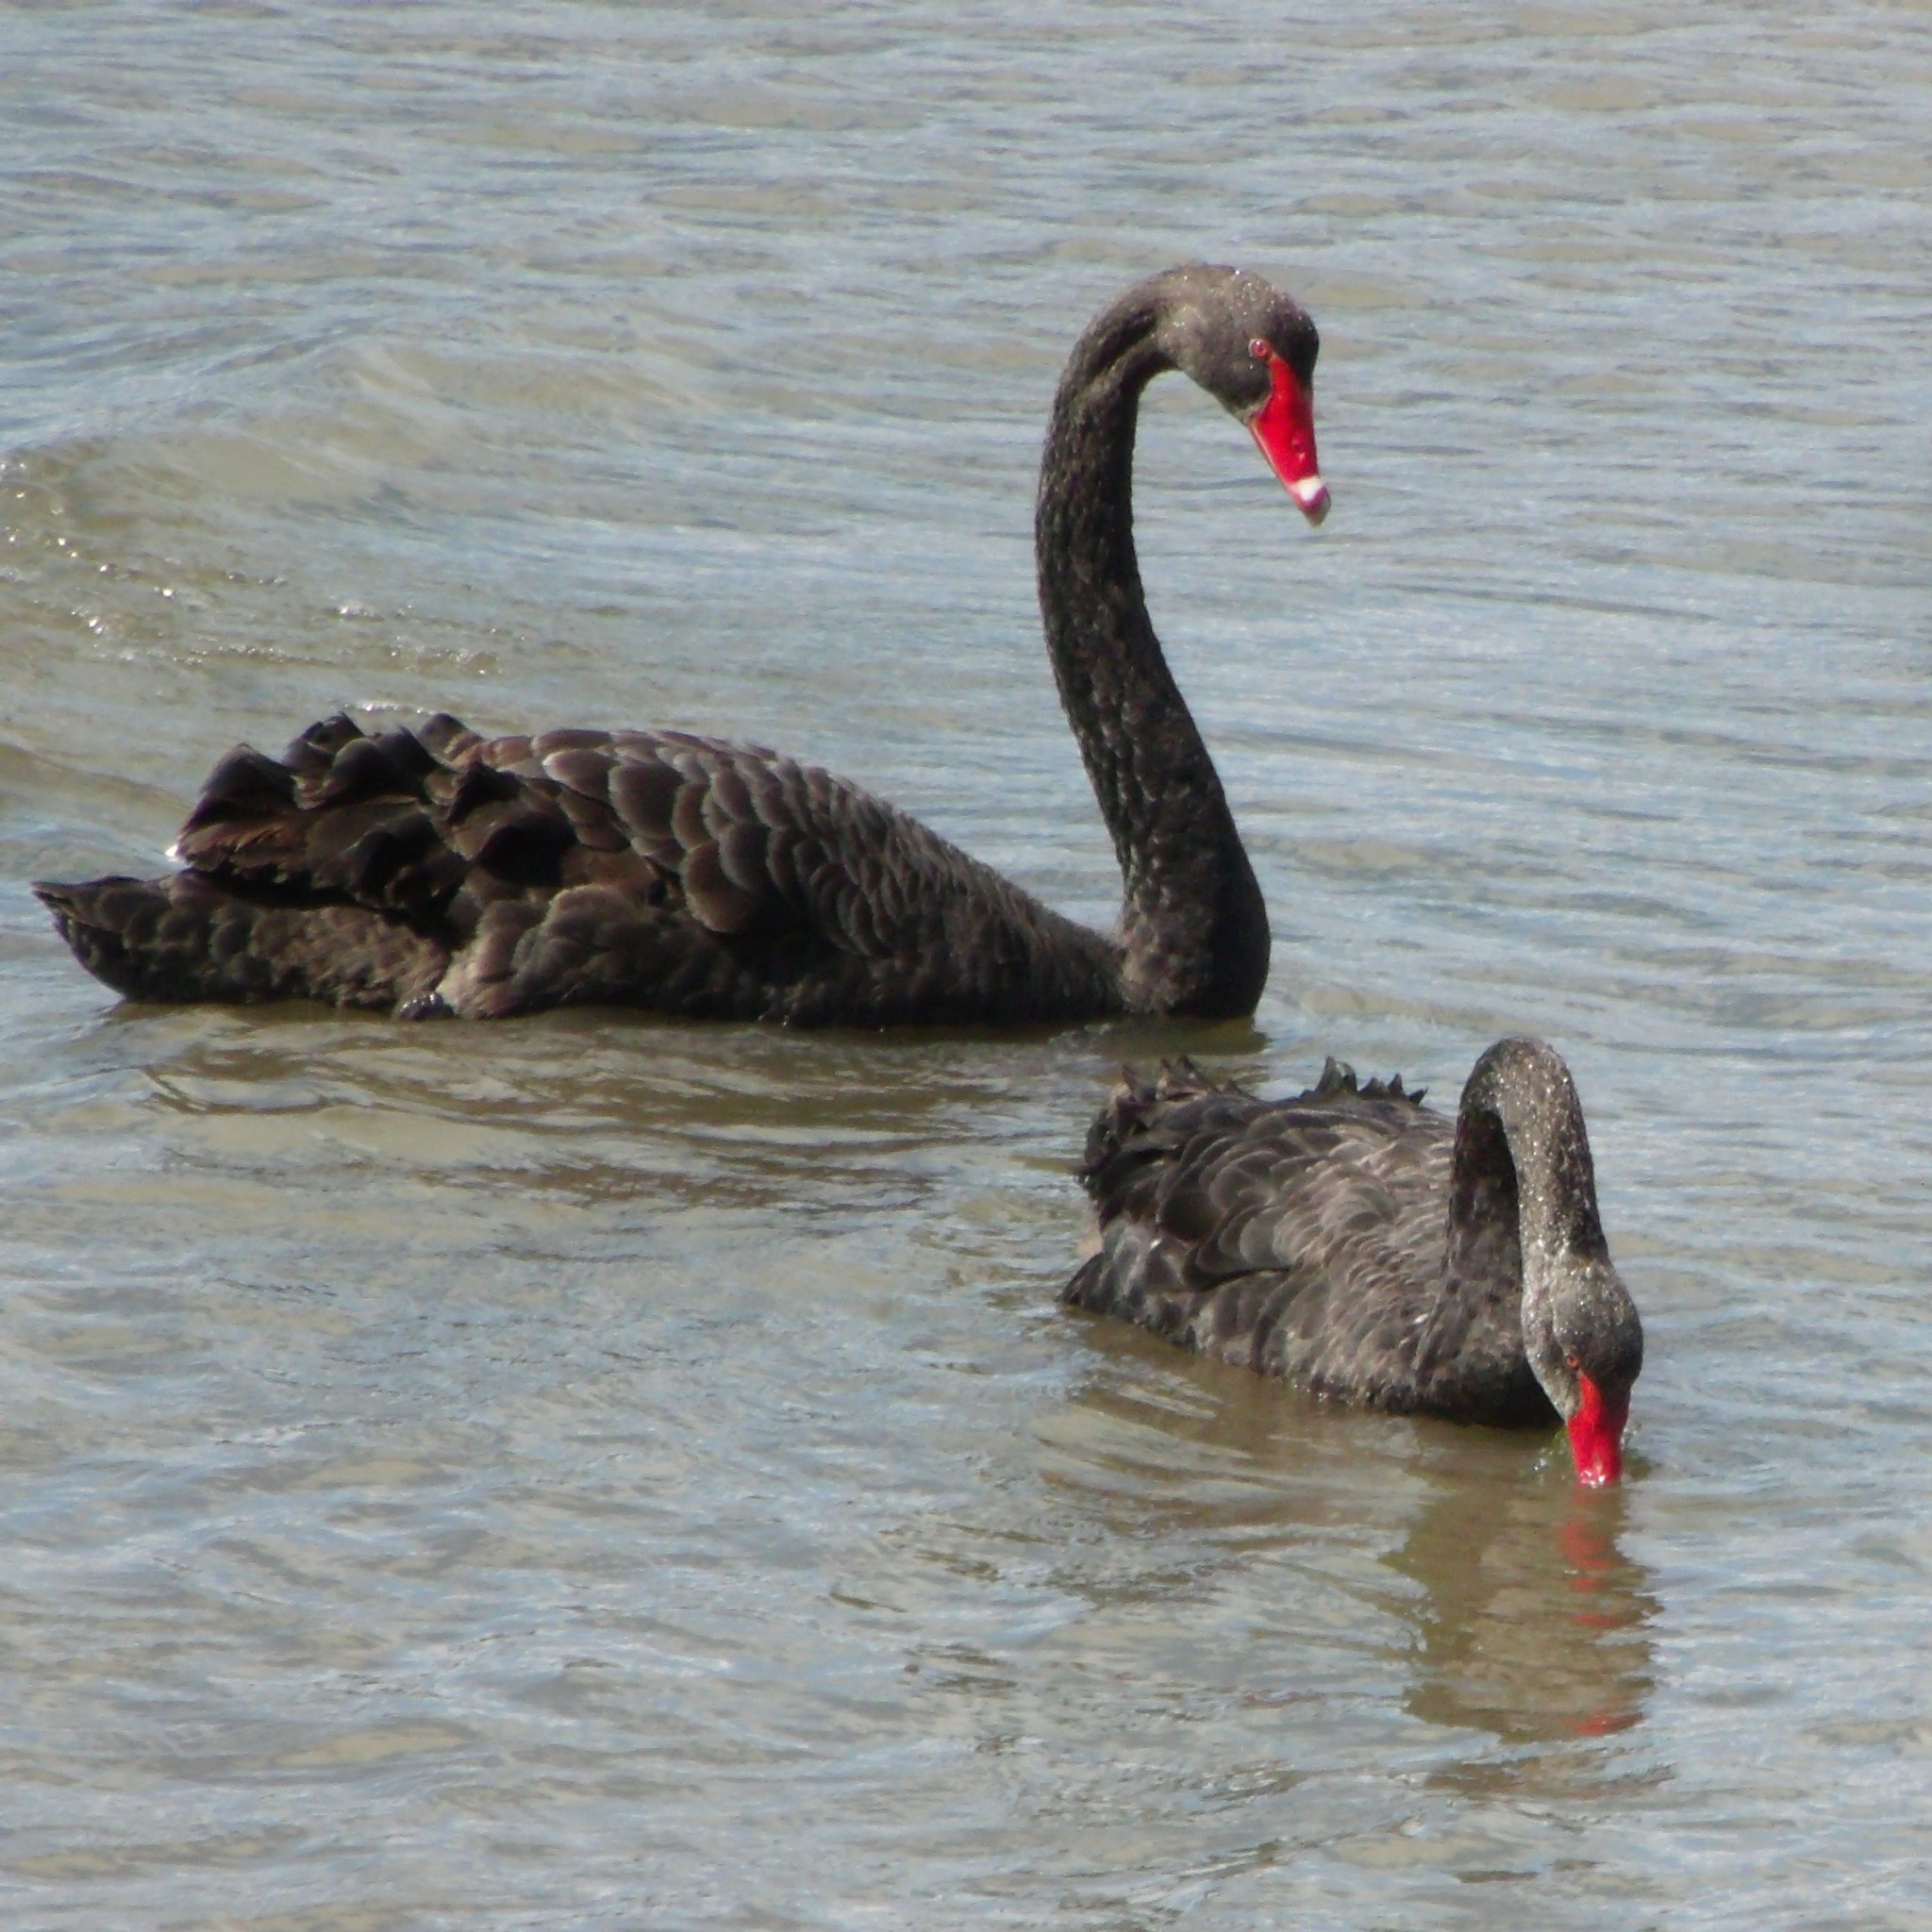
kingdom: Animalia
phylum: Chordata
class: Aves
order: Anseriformes
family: Anatidae
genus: Cygnus
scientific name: Cygnus atratus
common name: Black swan
